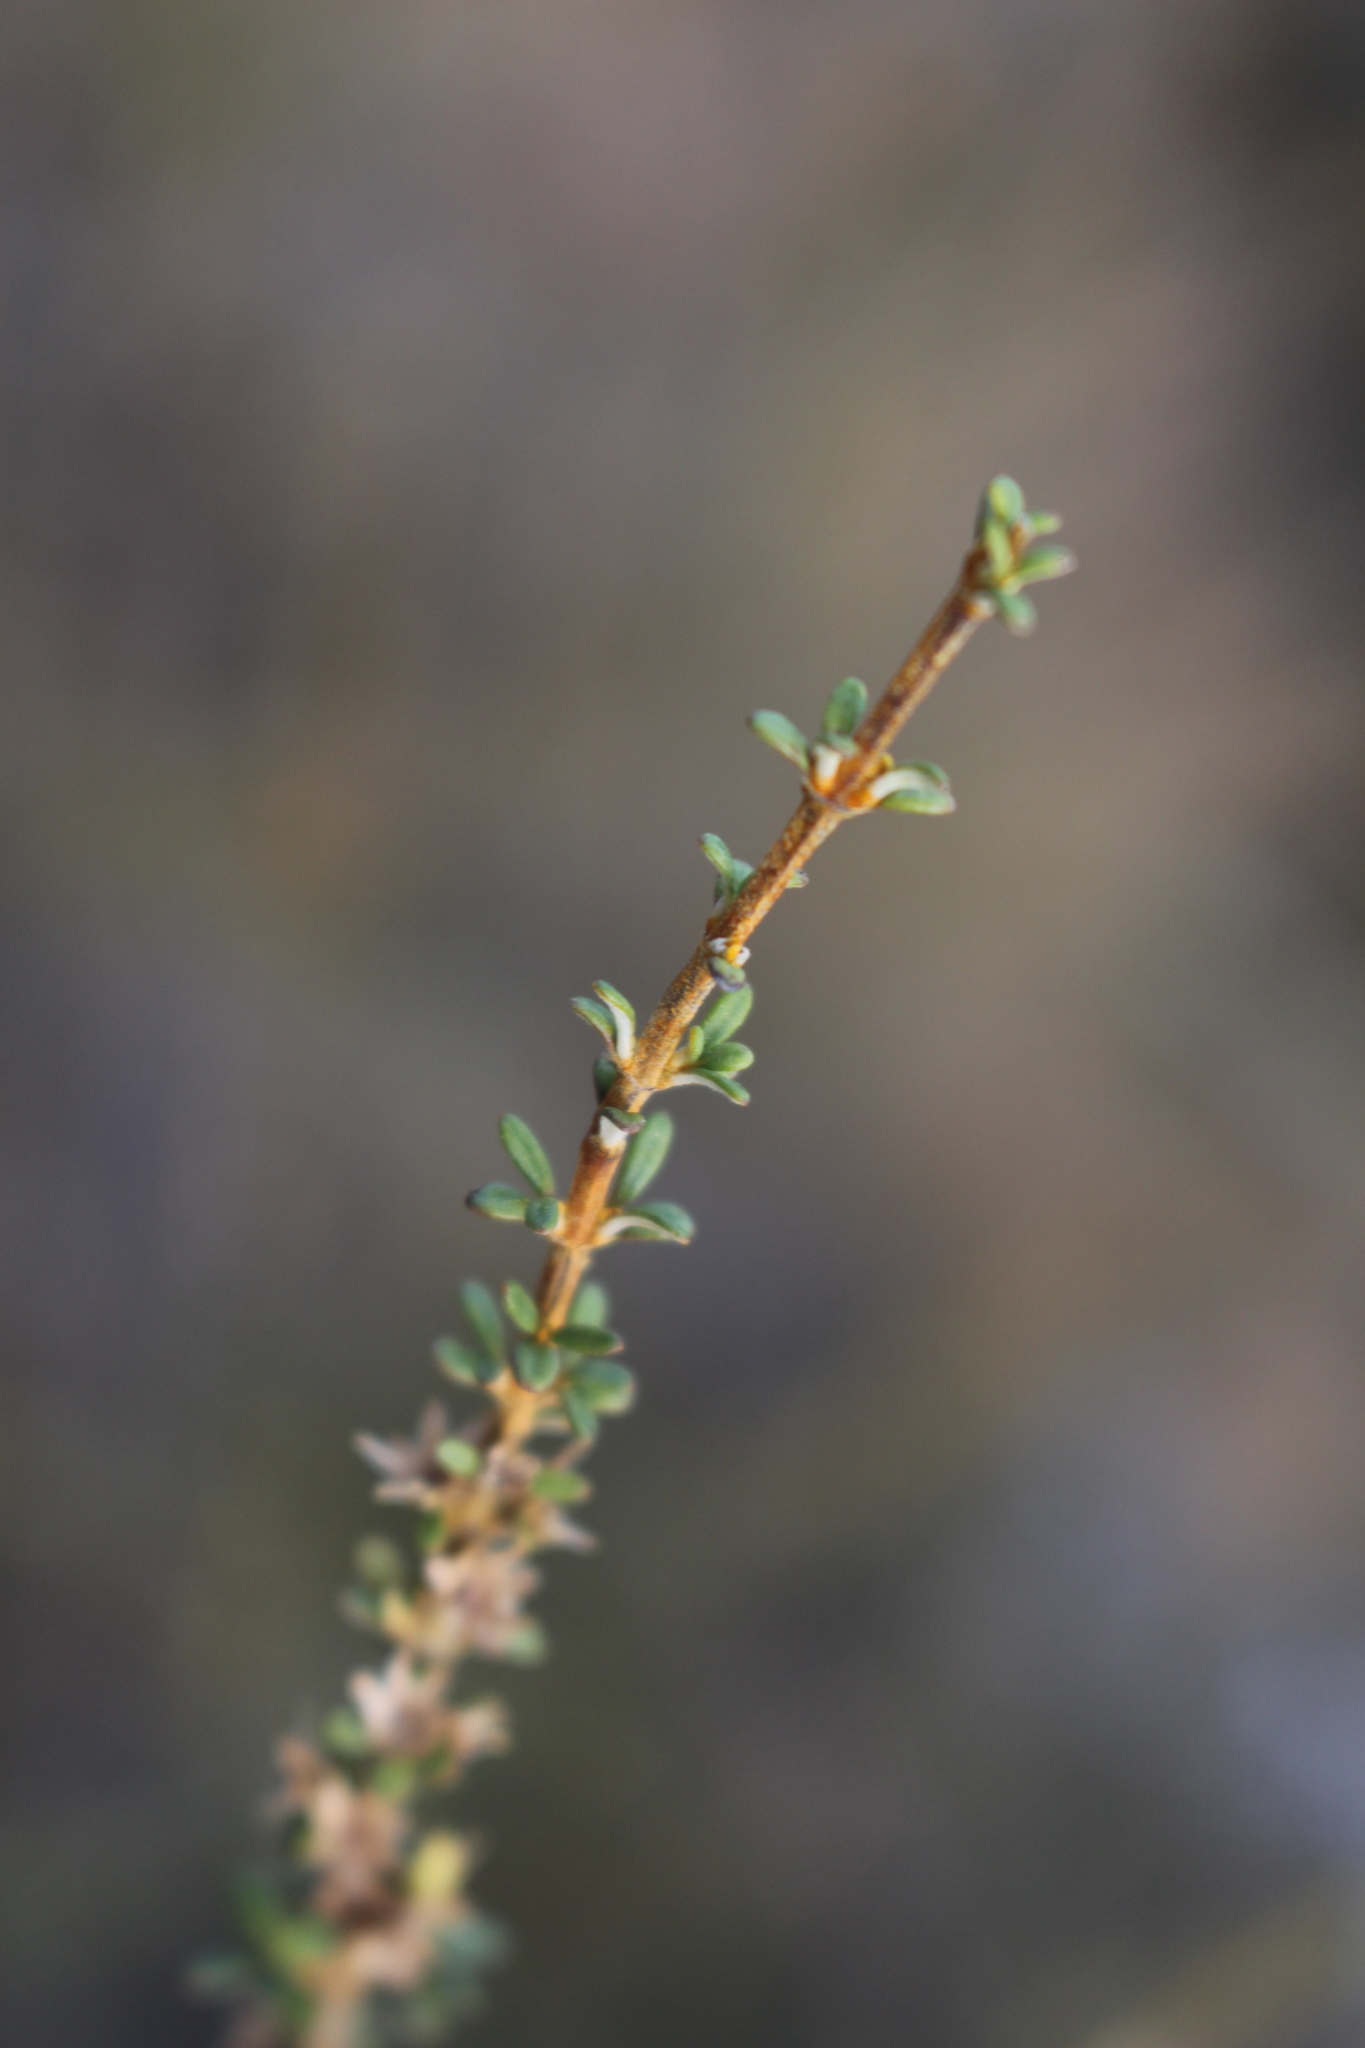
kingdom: Plantae
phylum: Tracheophyta
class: Magnoliopsida
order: Asterales
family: Asteraceae
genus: Olearia
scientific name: Olearia solandri
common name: Coastal daisybush
